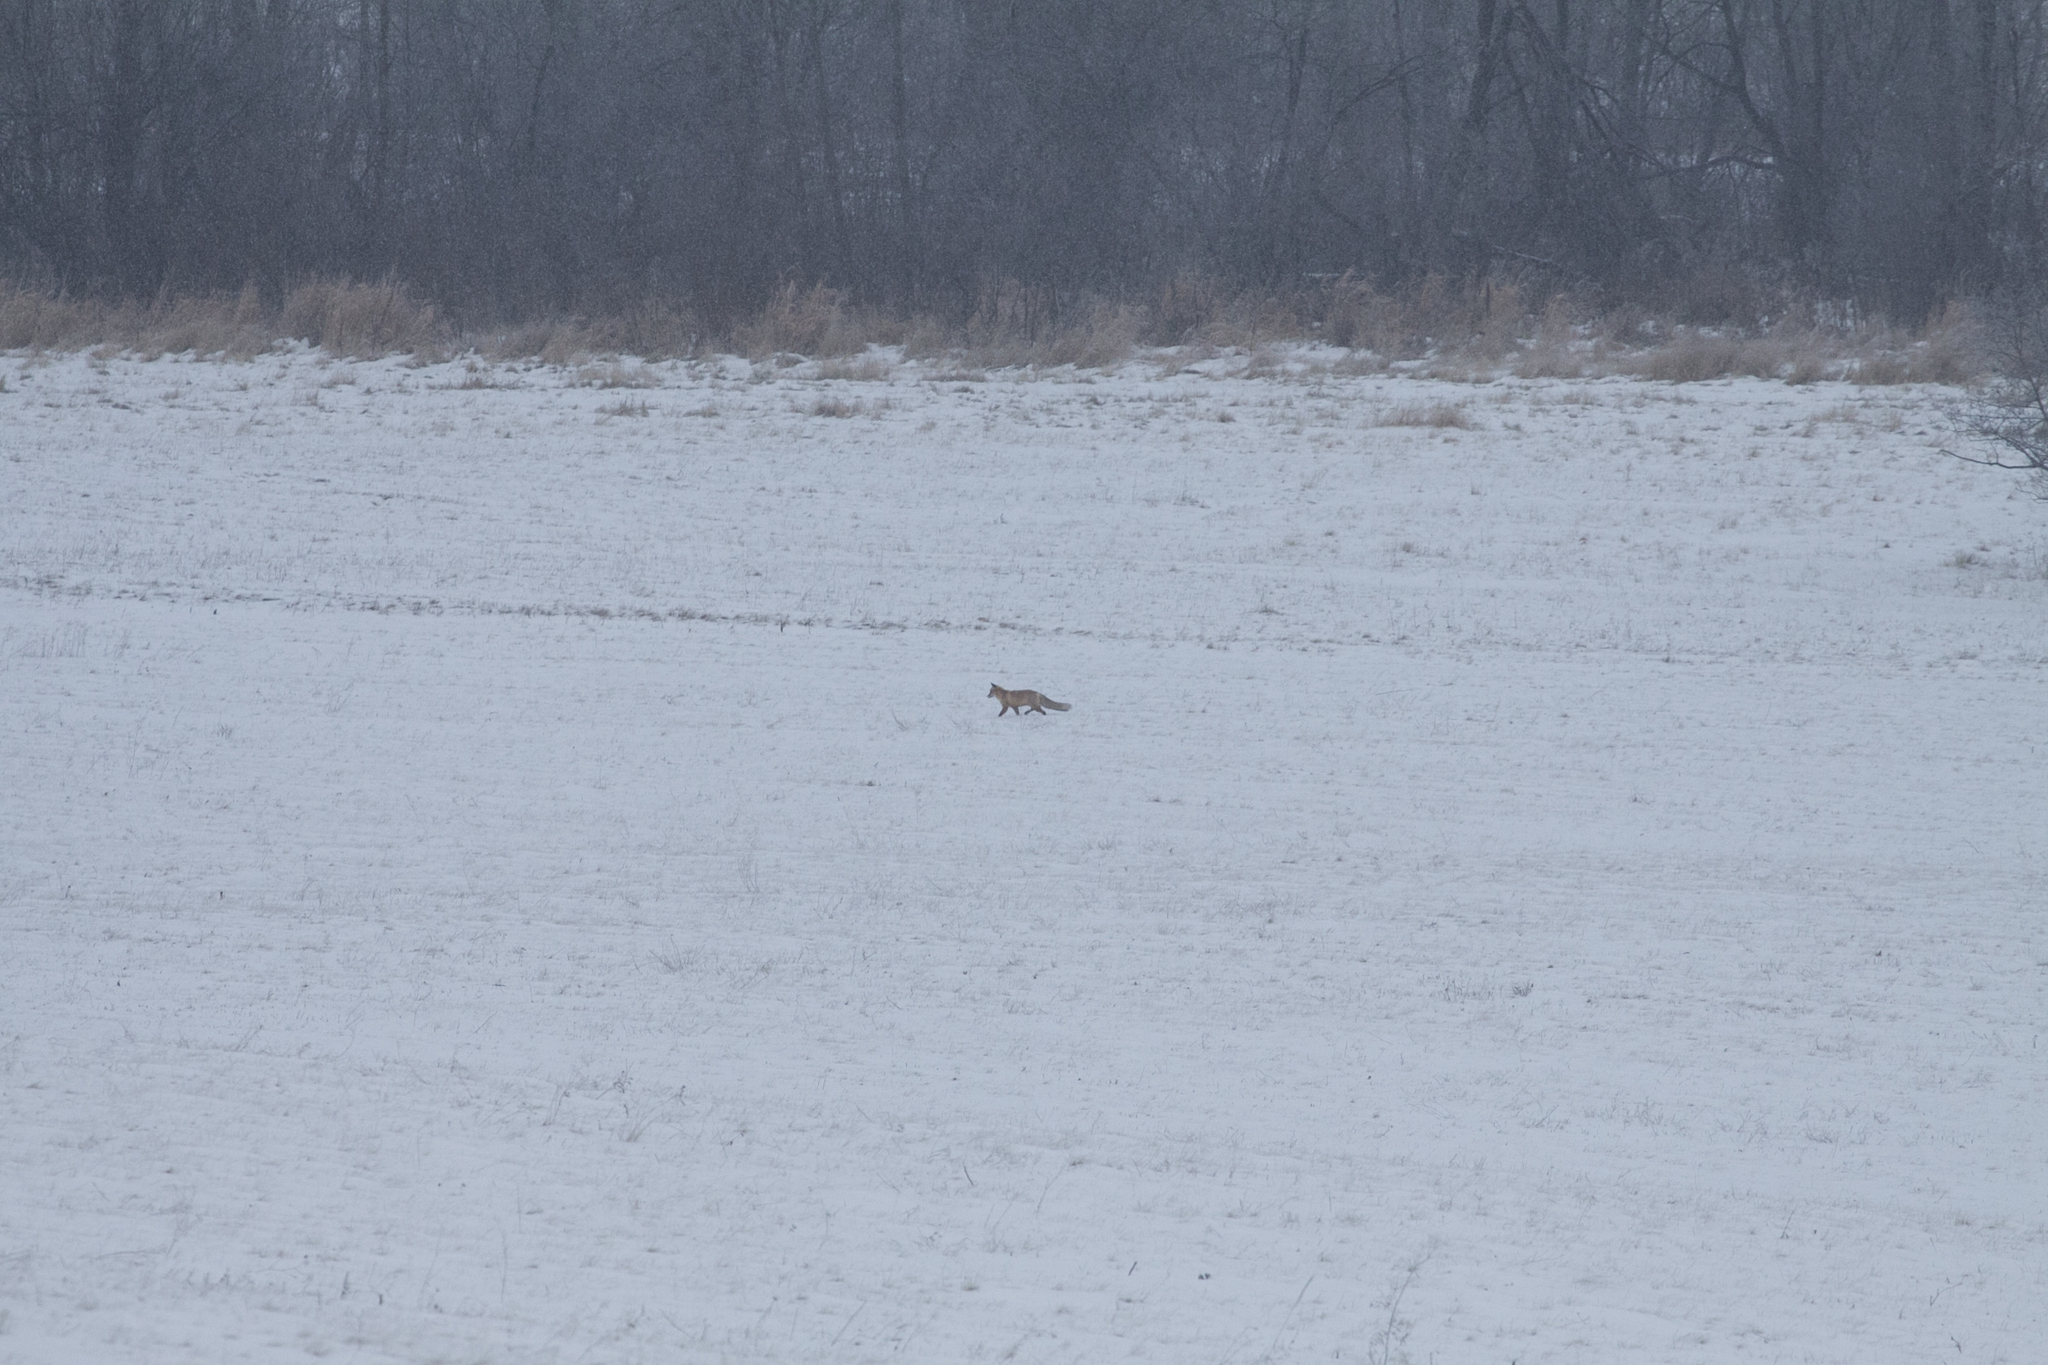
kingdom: Animalia
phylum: Chordata
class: Mammalia
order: Carnivora
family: Canidae
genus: Vulpes
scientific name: Vulpes vulpes
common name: Red fox
